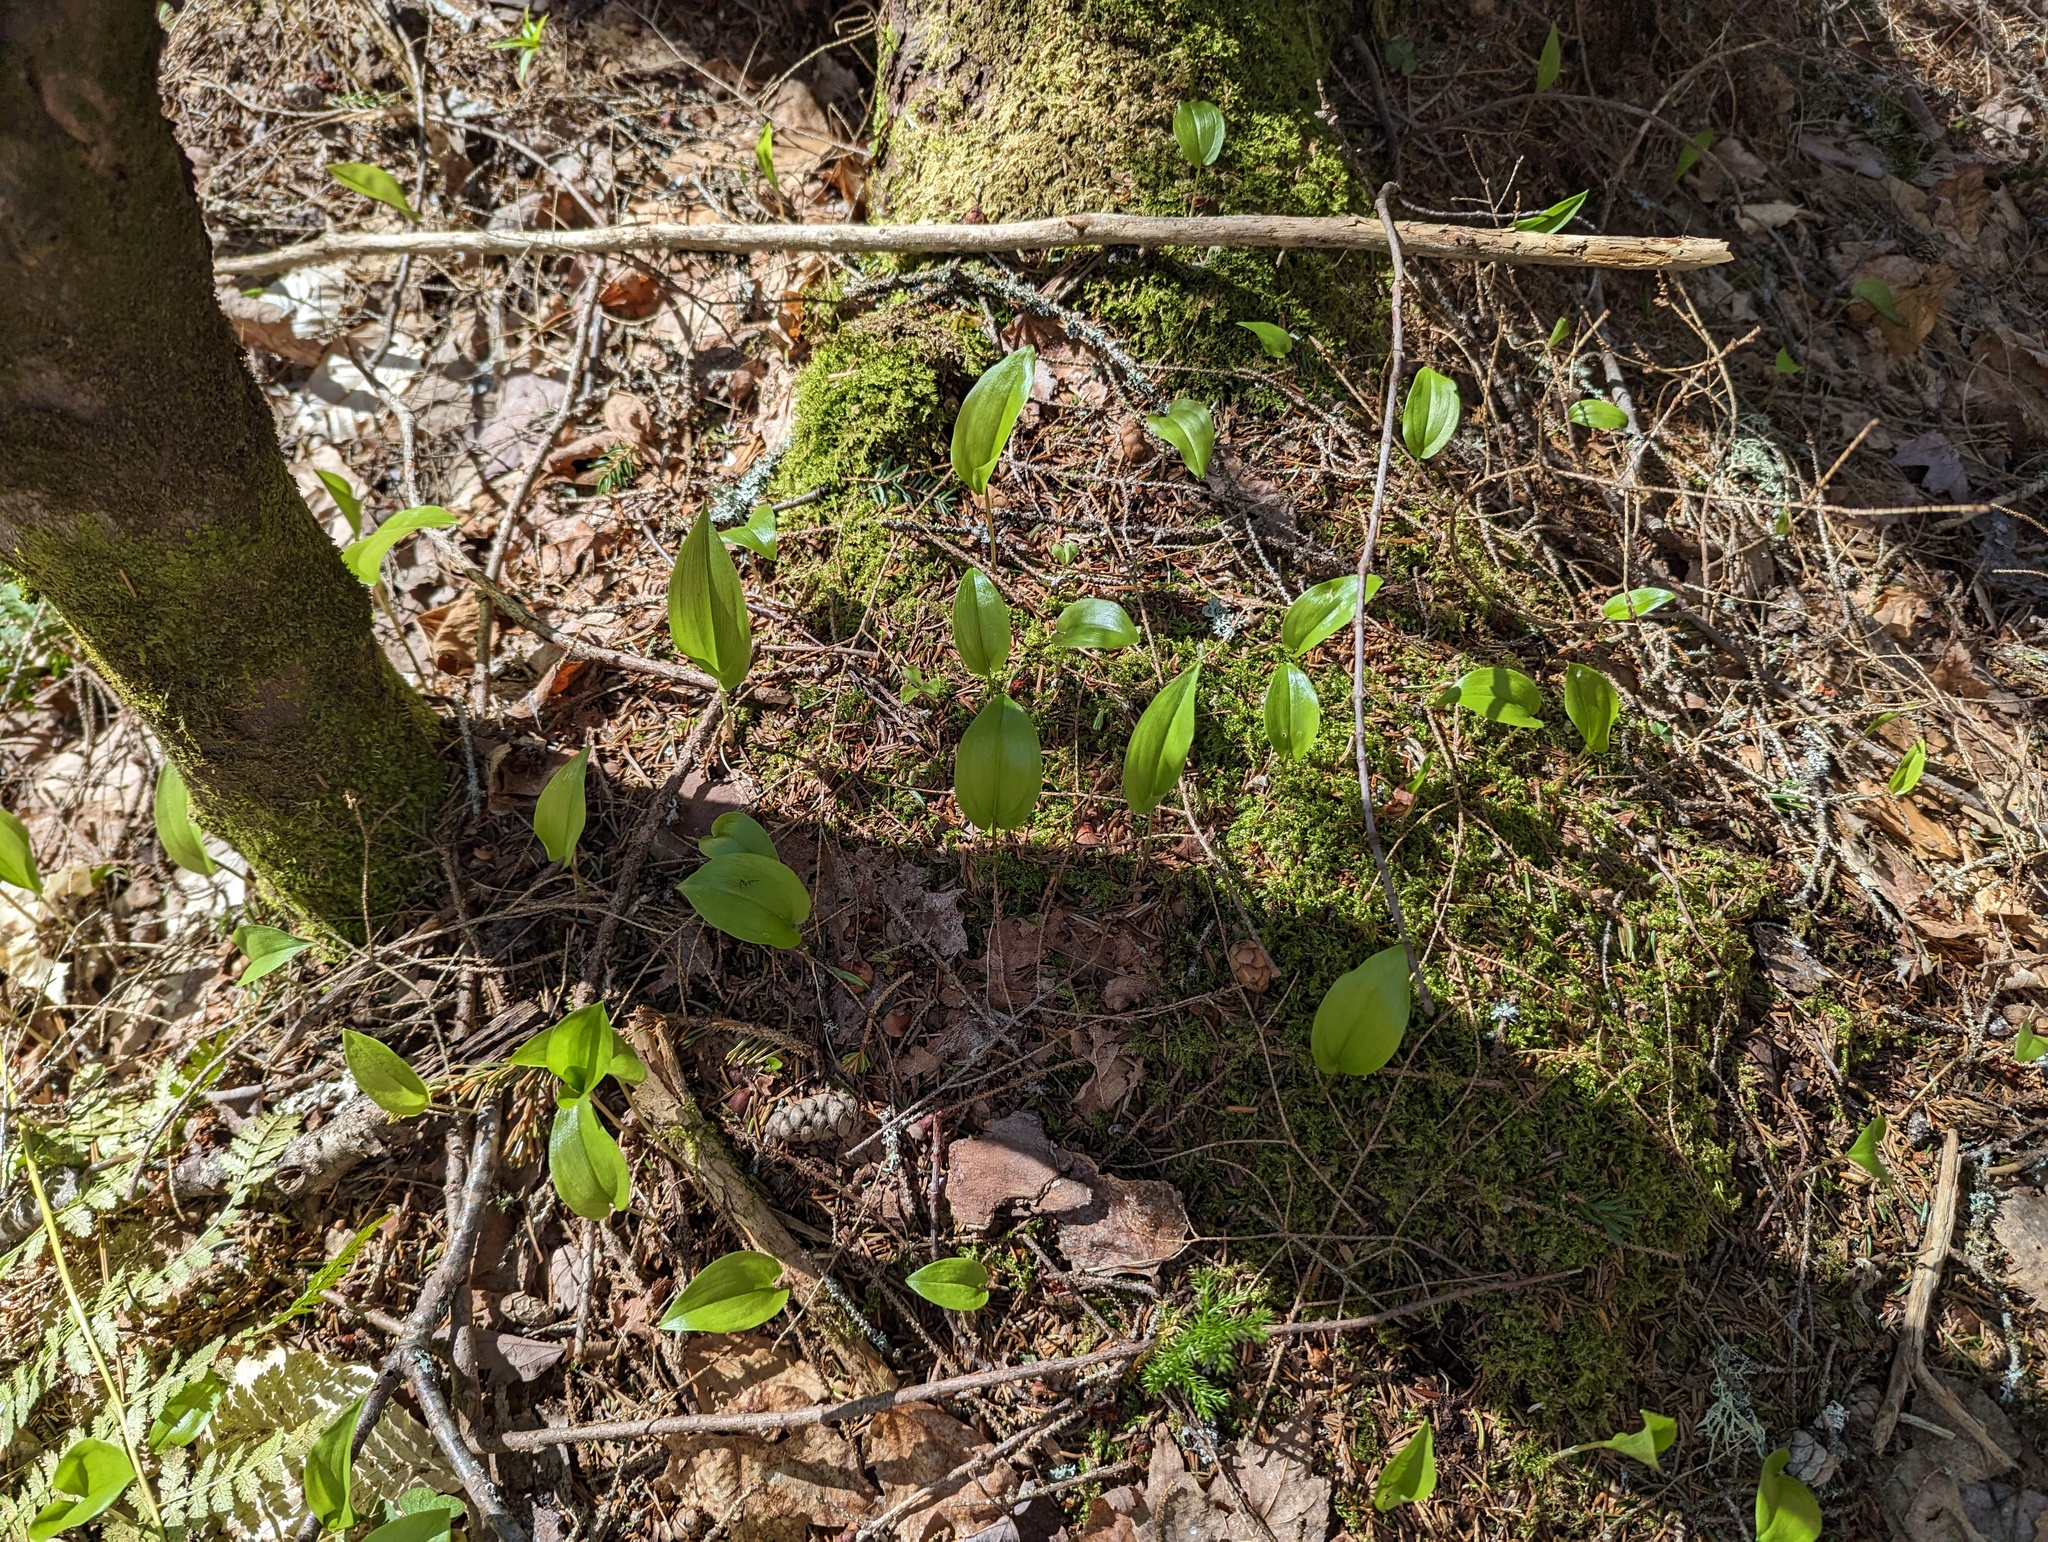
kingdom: Plantae
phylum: Tracheophyta
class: Liliopsida
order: Asparagales
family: Asparagaceae
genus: Maianthemum
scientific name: Maianthemum canadense
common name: False lily-of-the-valley
